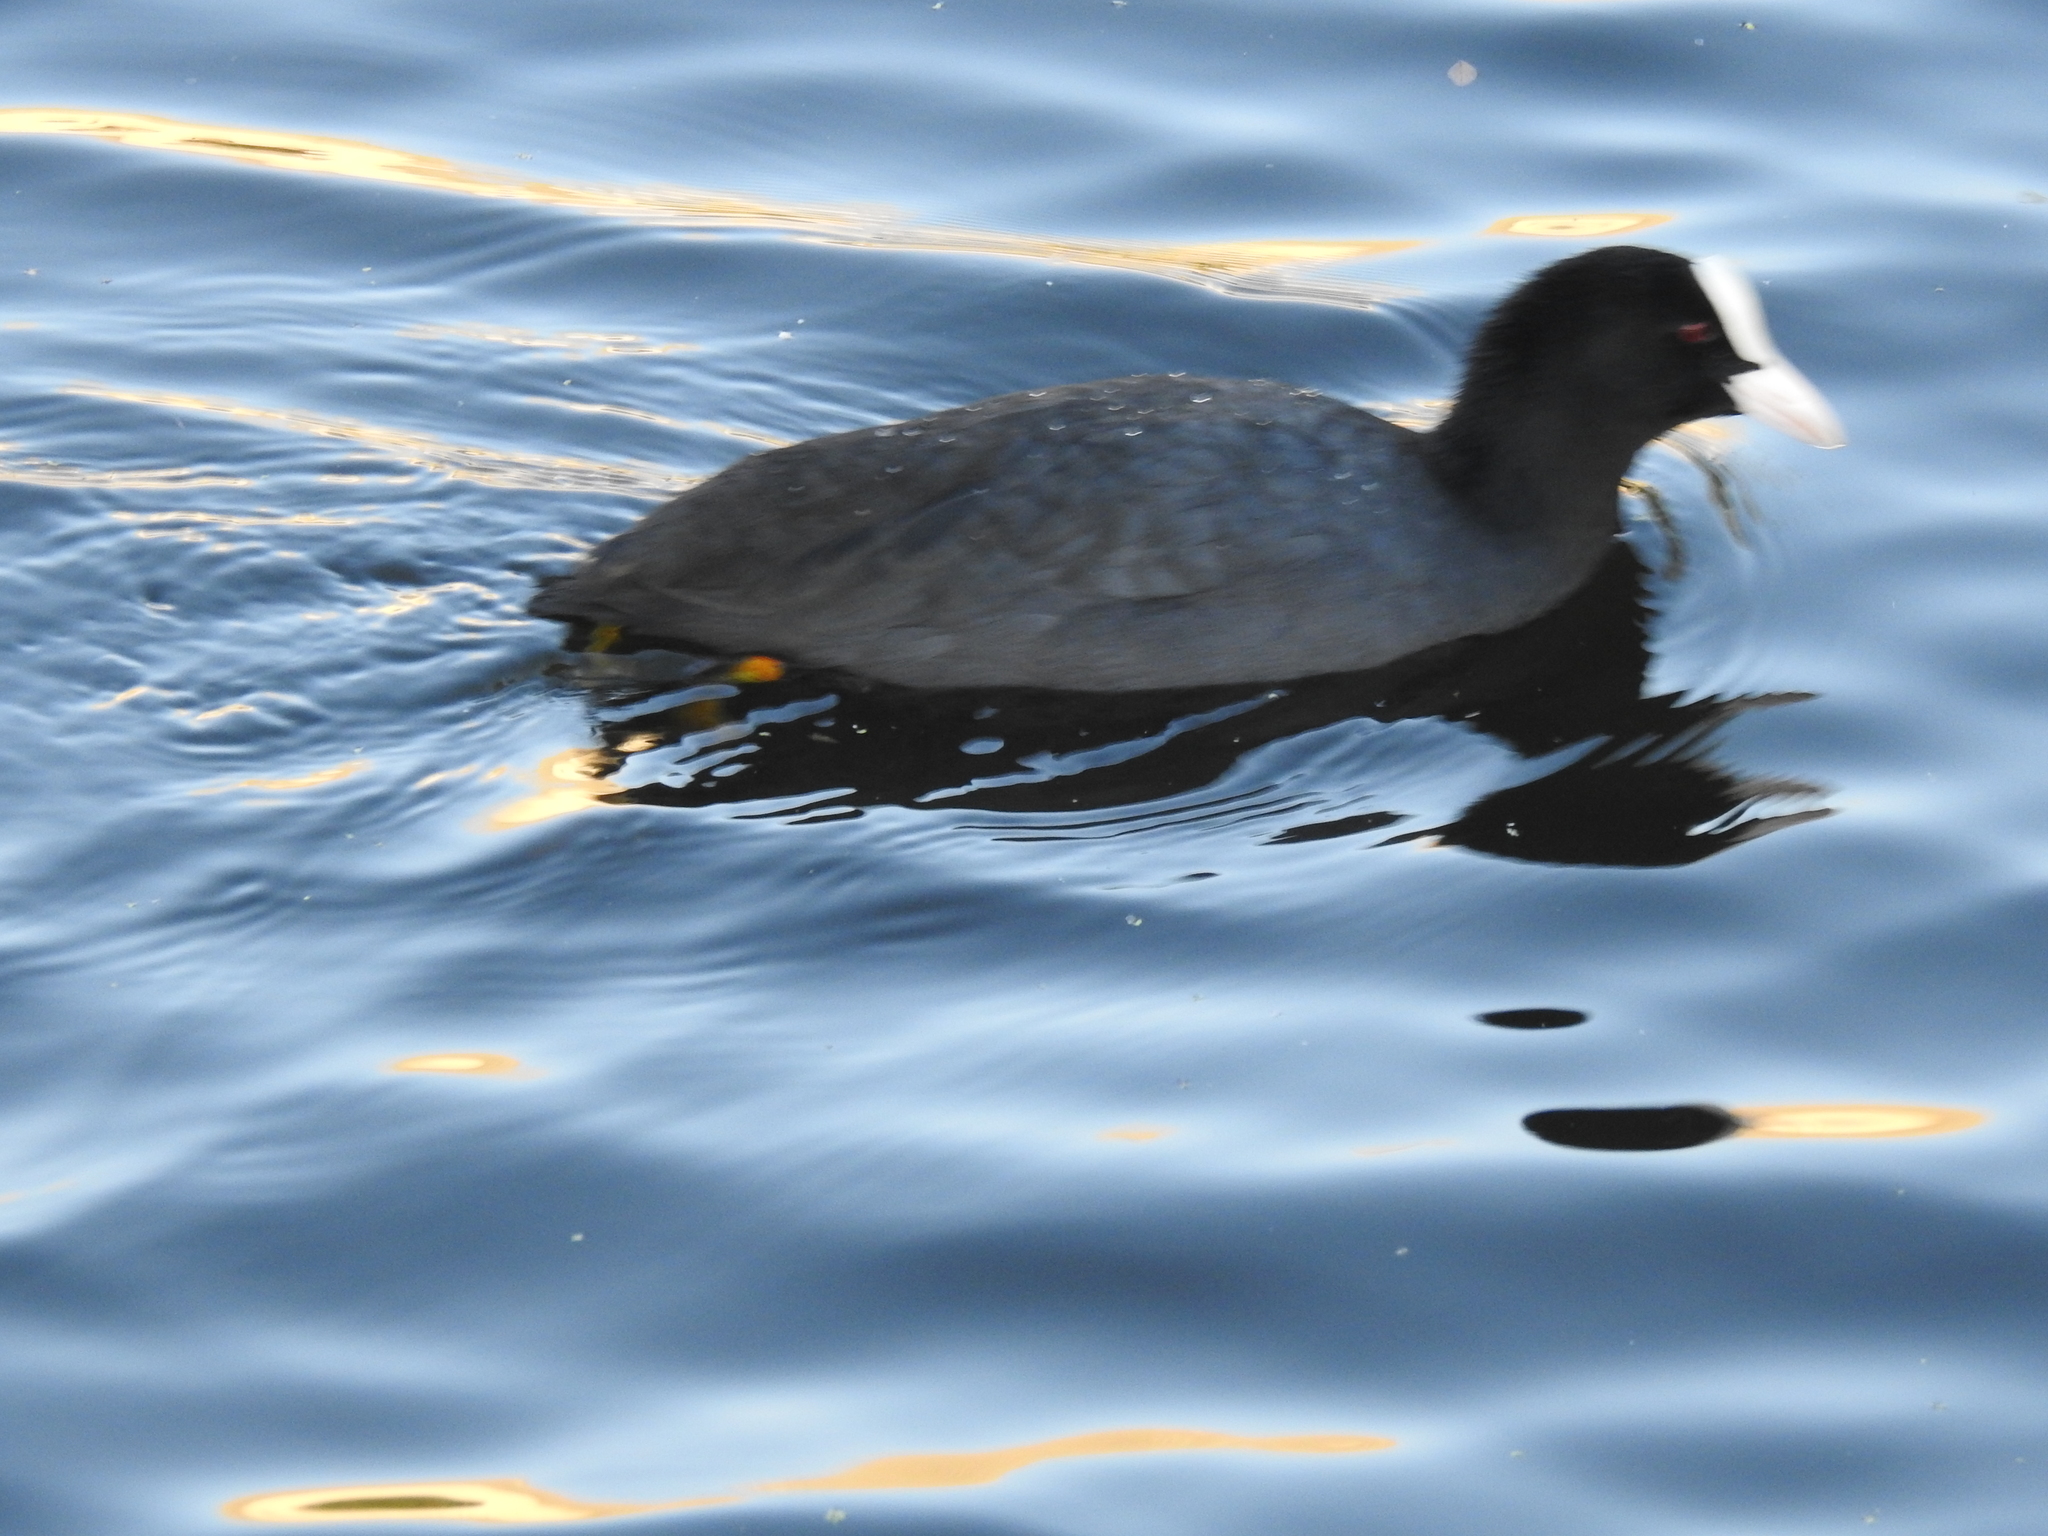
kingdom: Animalia
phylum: Chordata
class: Aves
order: Gruiformes
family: Rallidae
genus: Fulica
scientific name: Fulica atra
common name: Eurasian coot
